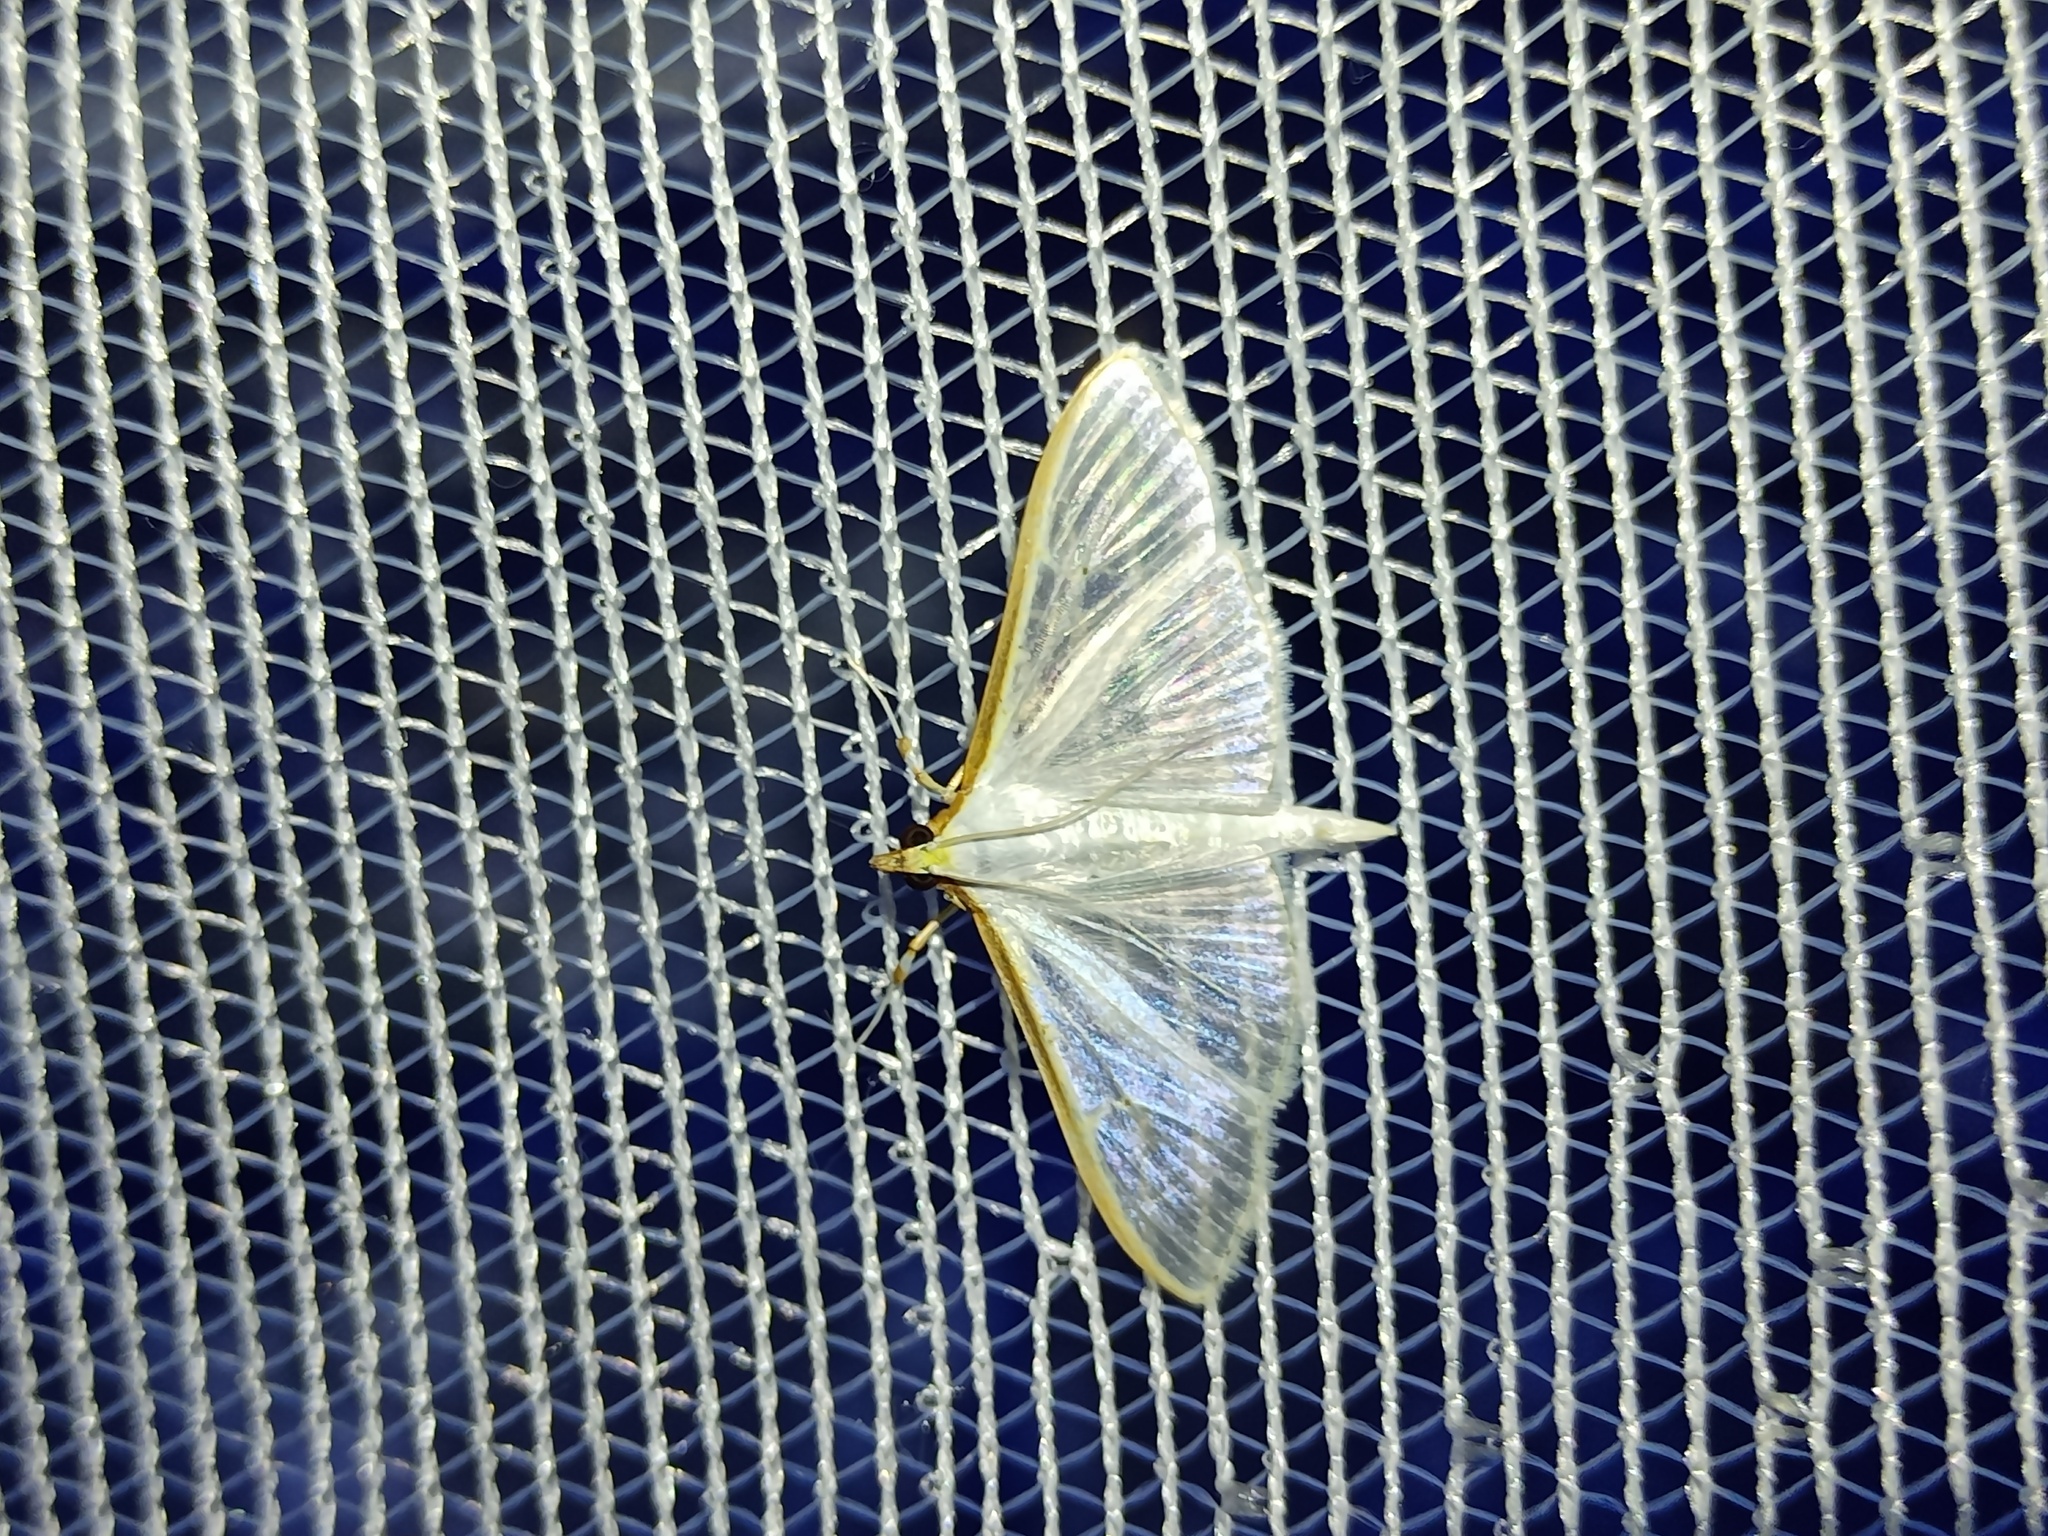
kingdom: Animalia
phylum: Arthropoda
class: Insecta
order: Lepidoptera
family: Crambidae
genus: Palpita
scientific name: Palpita vitrealis
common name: Olive-tree pearl
